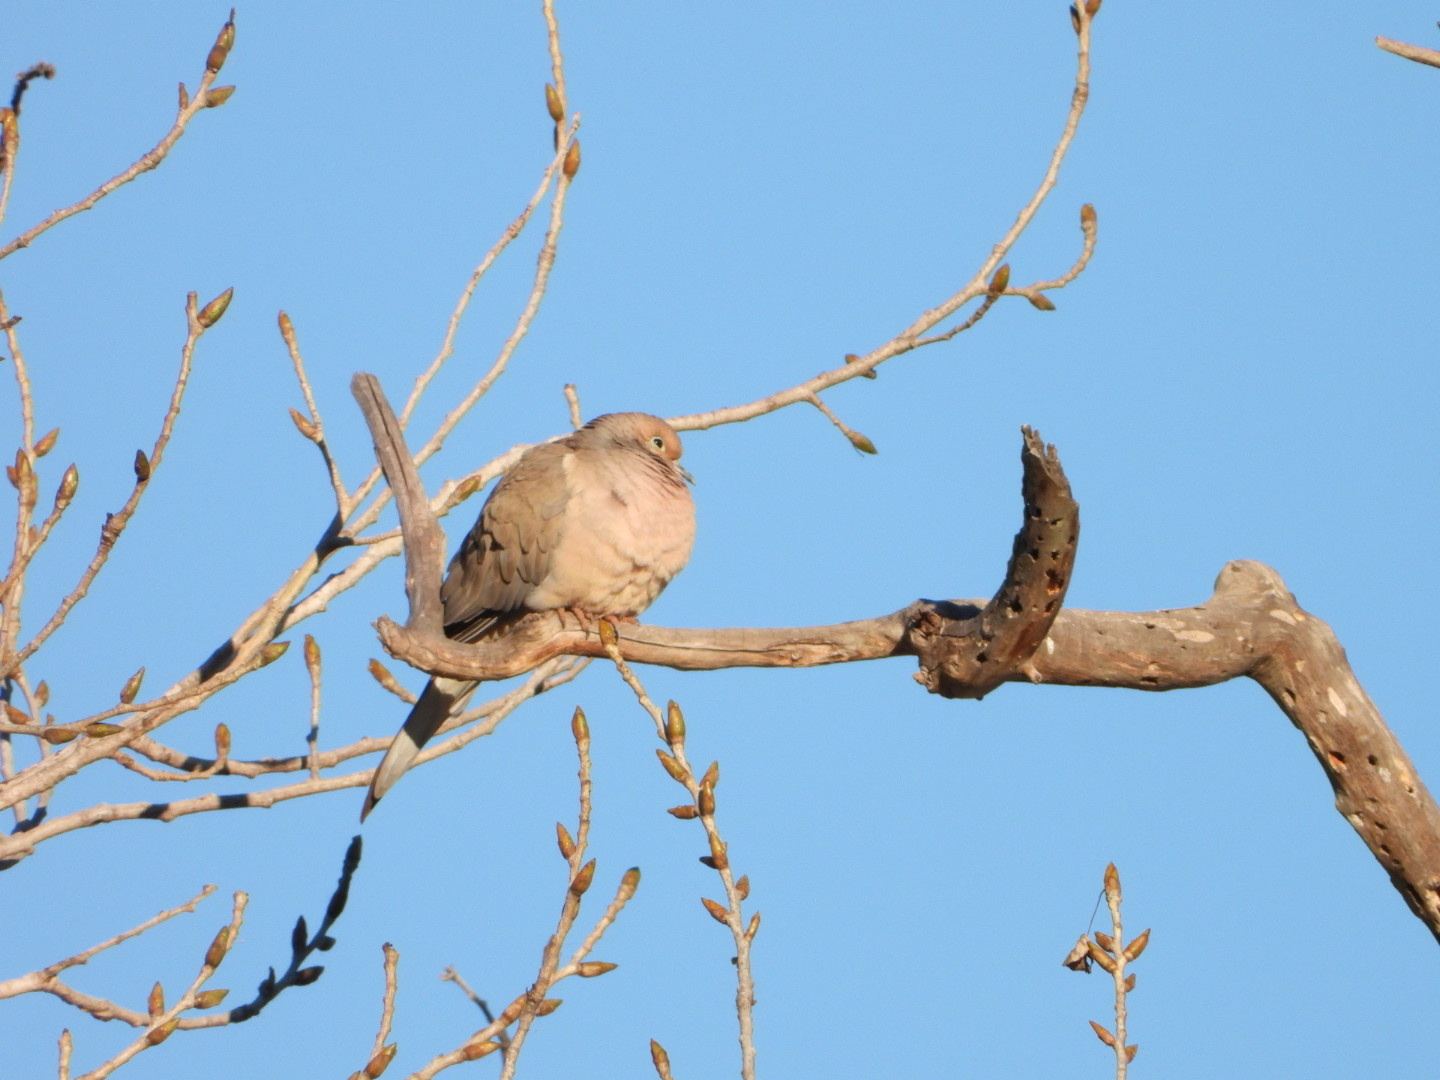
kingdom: Animalia
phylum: Chordata
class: Aves
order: Columbiformes
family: Columbidae
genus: Zenaida
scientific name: Zenaida macroura
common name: Mourning dove
